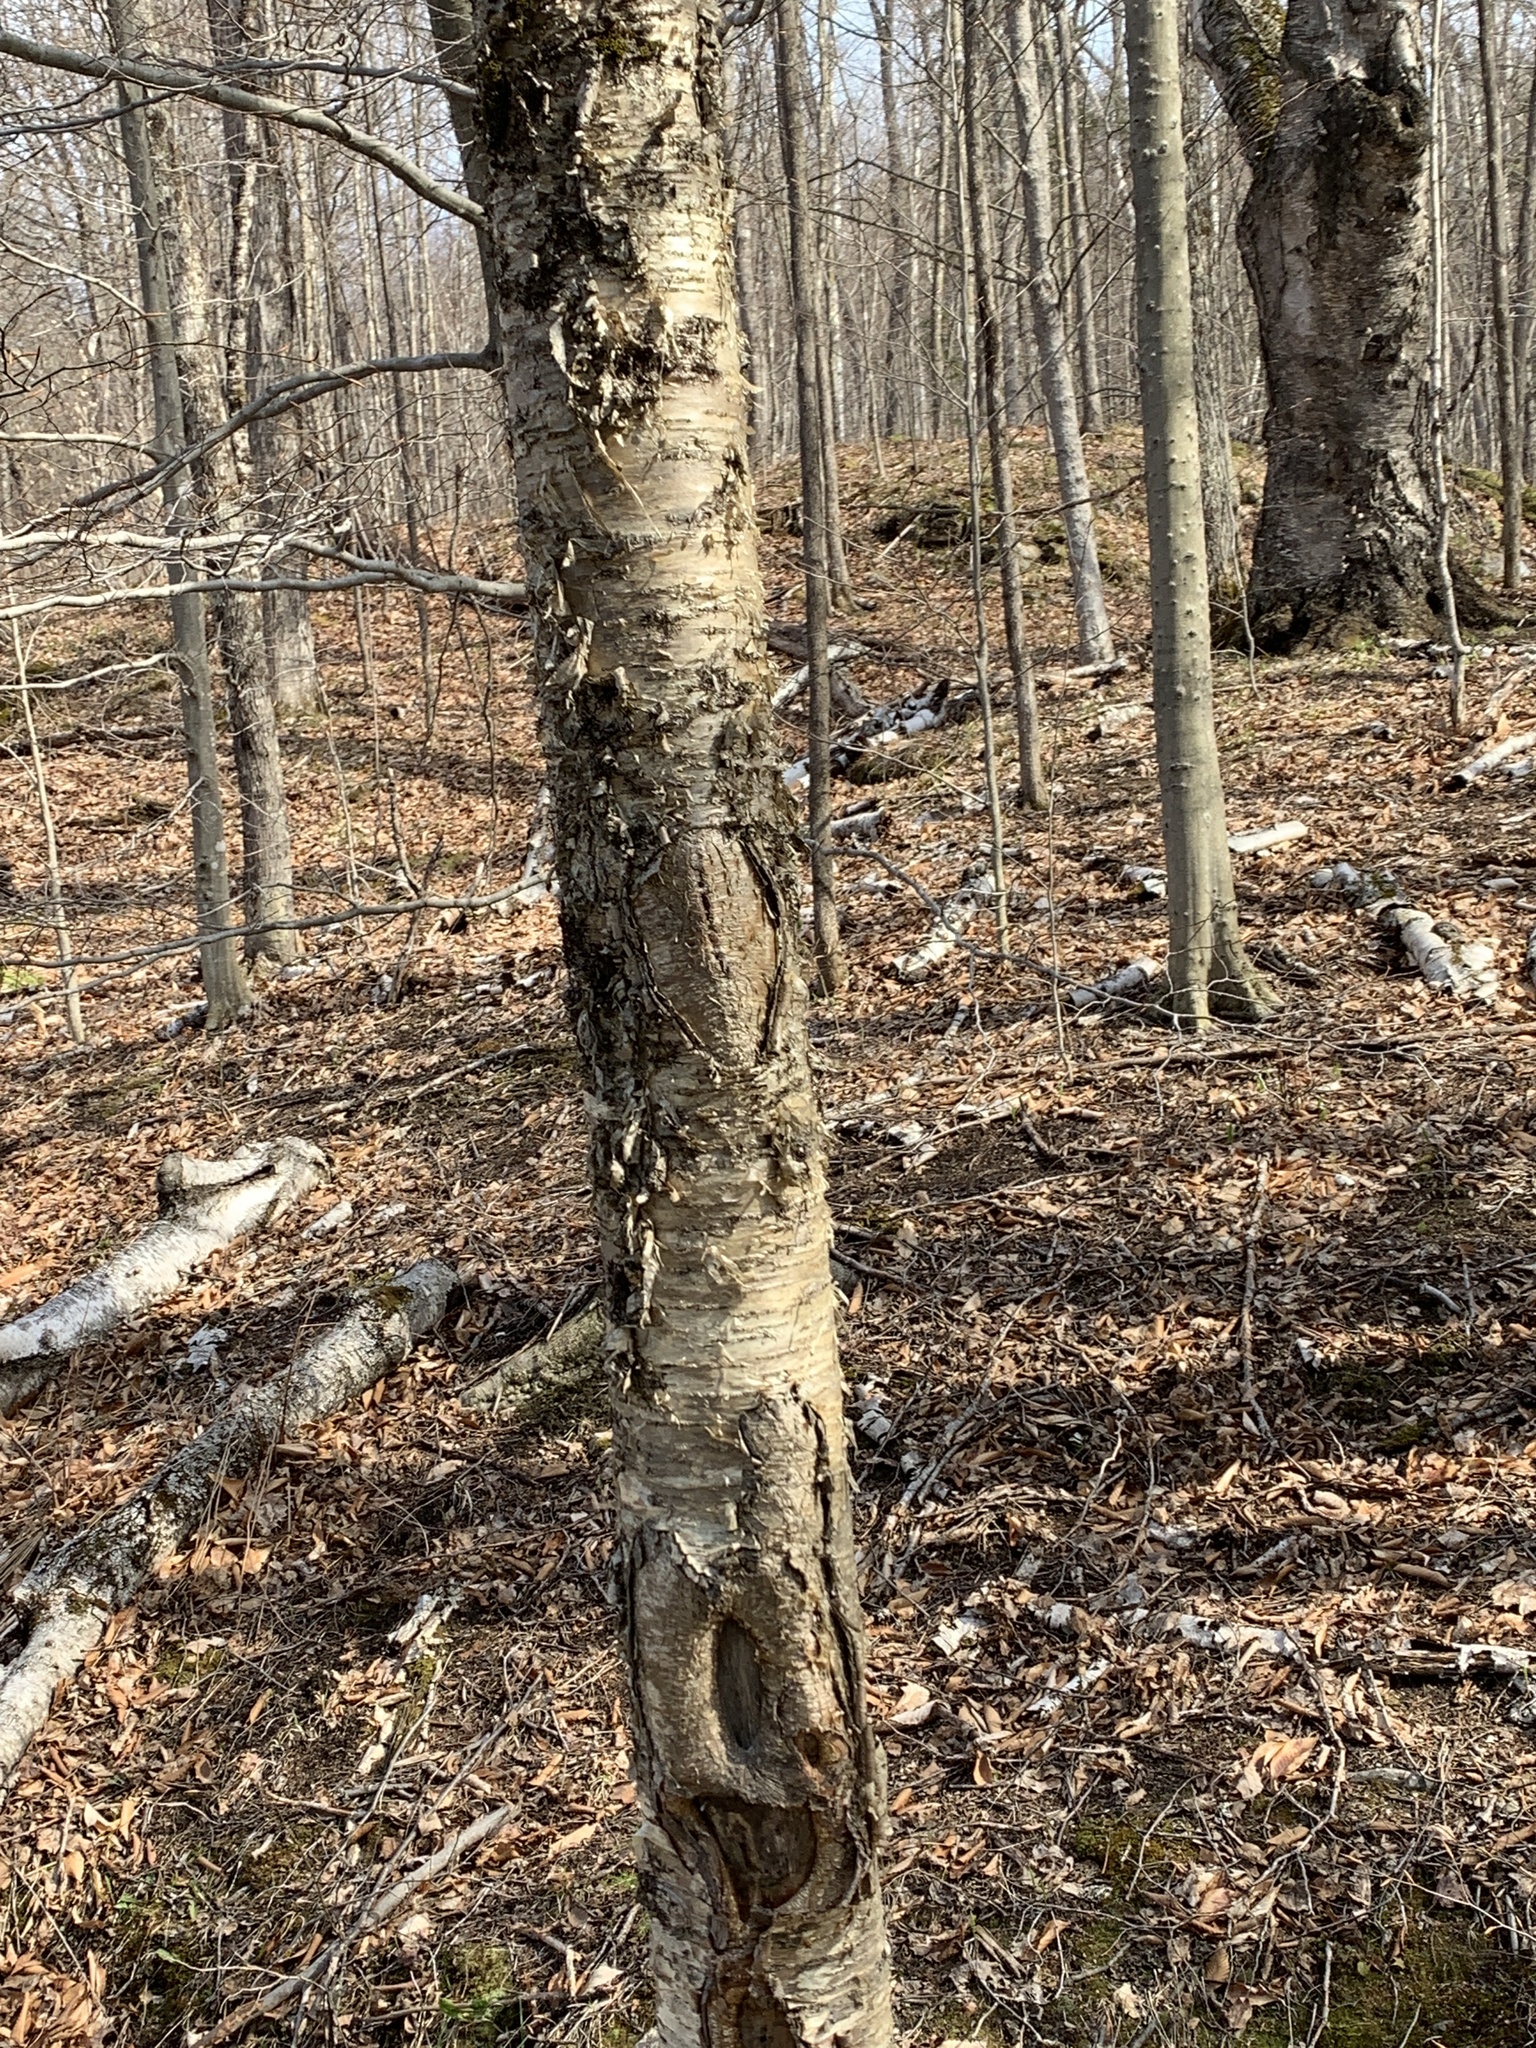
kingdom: Plantae
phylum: Tracheophyta
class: Magnoliopsida
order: Fagales
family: Betulaceae
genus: Betula
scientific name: Betula alleghaniensis
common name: Yellow birch
